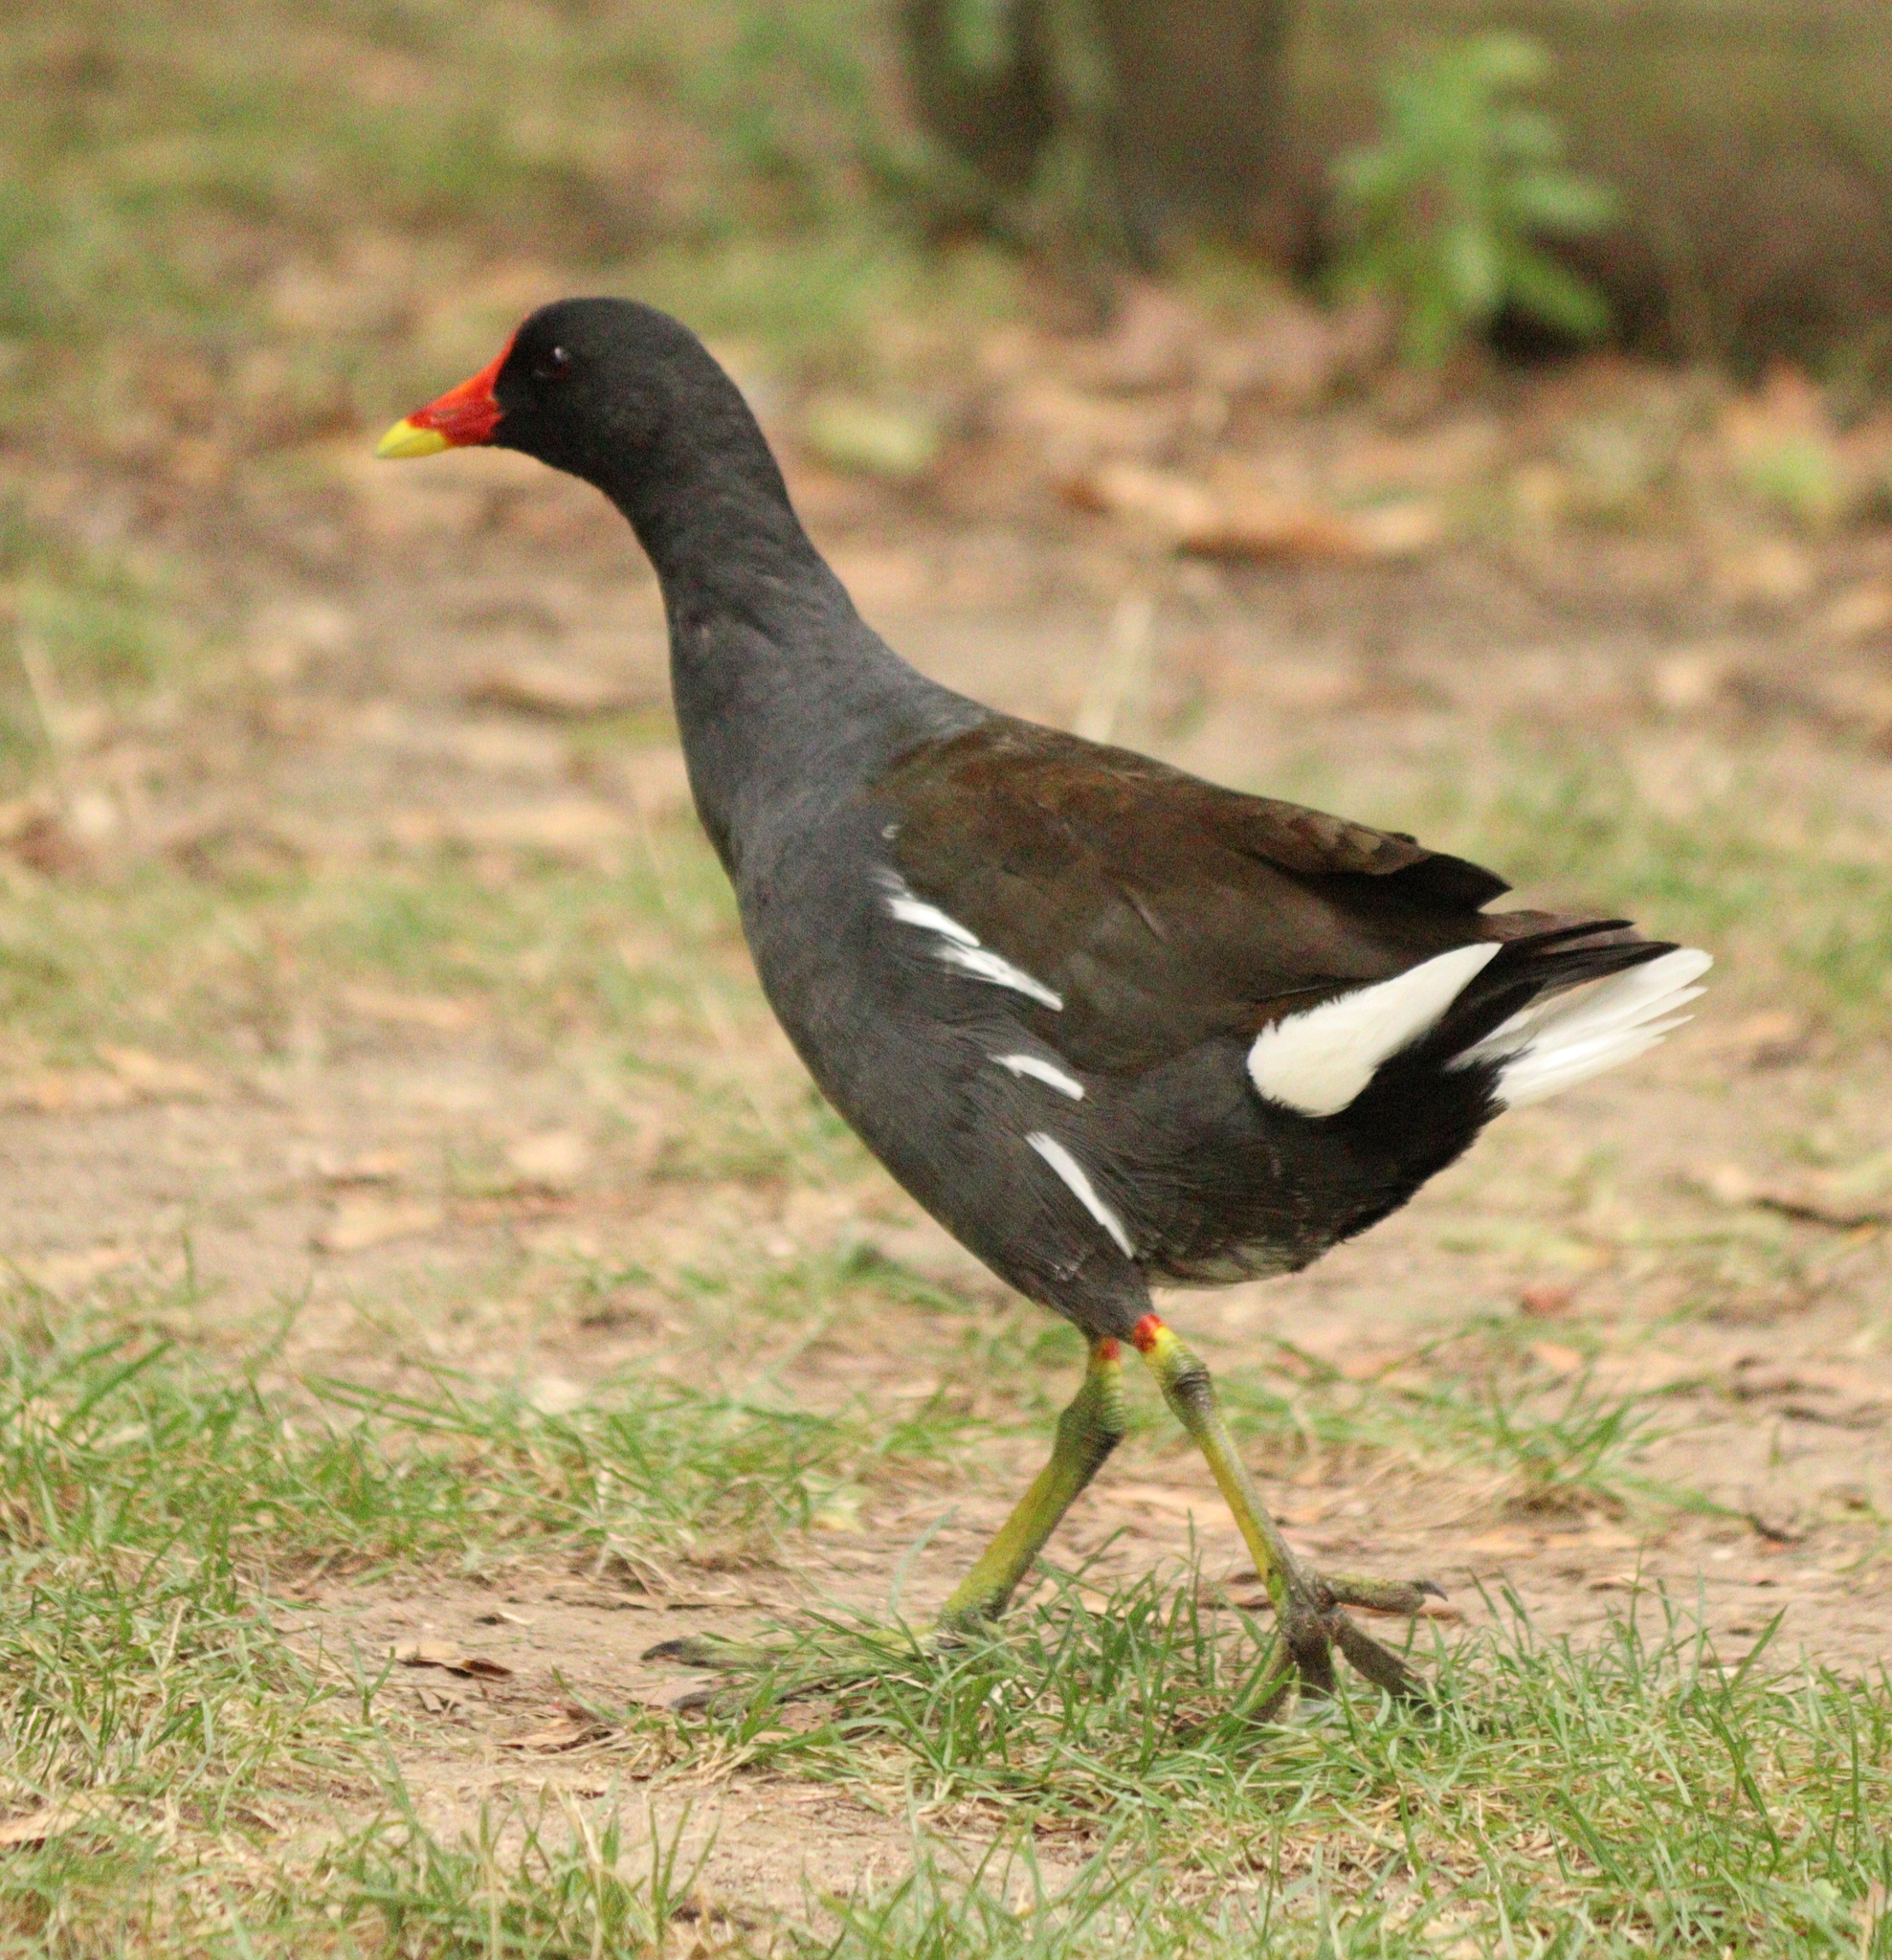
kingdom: Animalia
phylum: Chordata
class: Aves
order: Gruiformes
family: Rallidae
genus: Gallinula
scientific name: Gallinula chloropus
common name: Common moorhen
